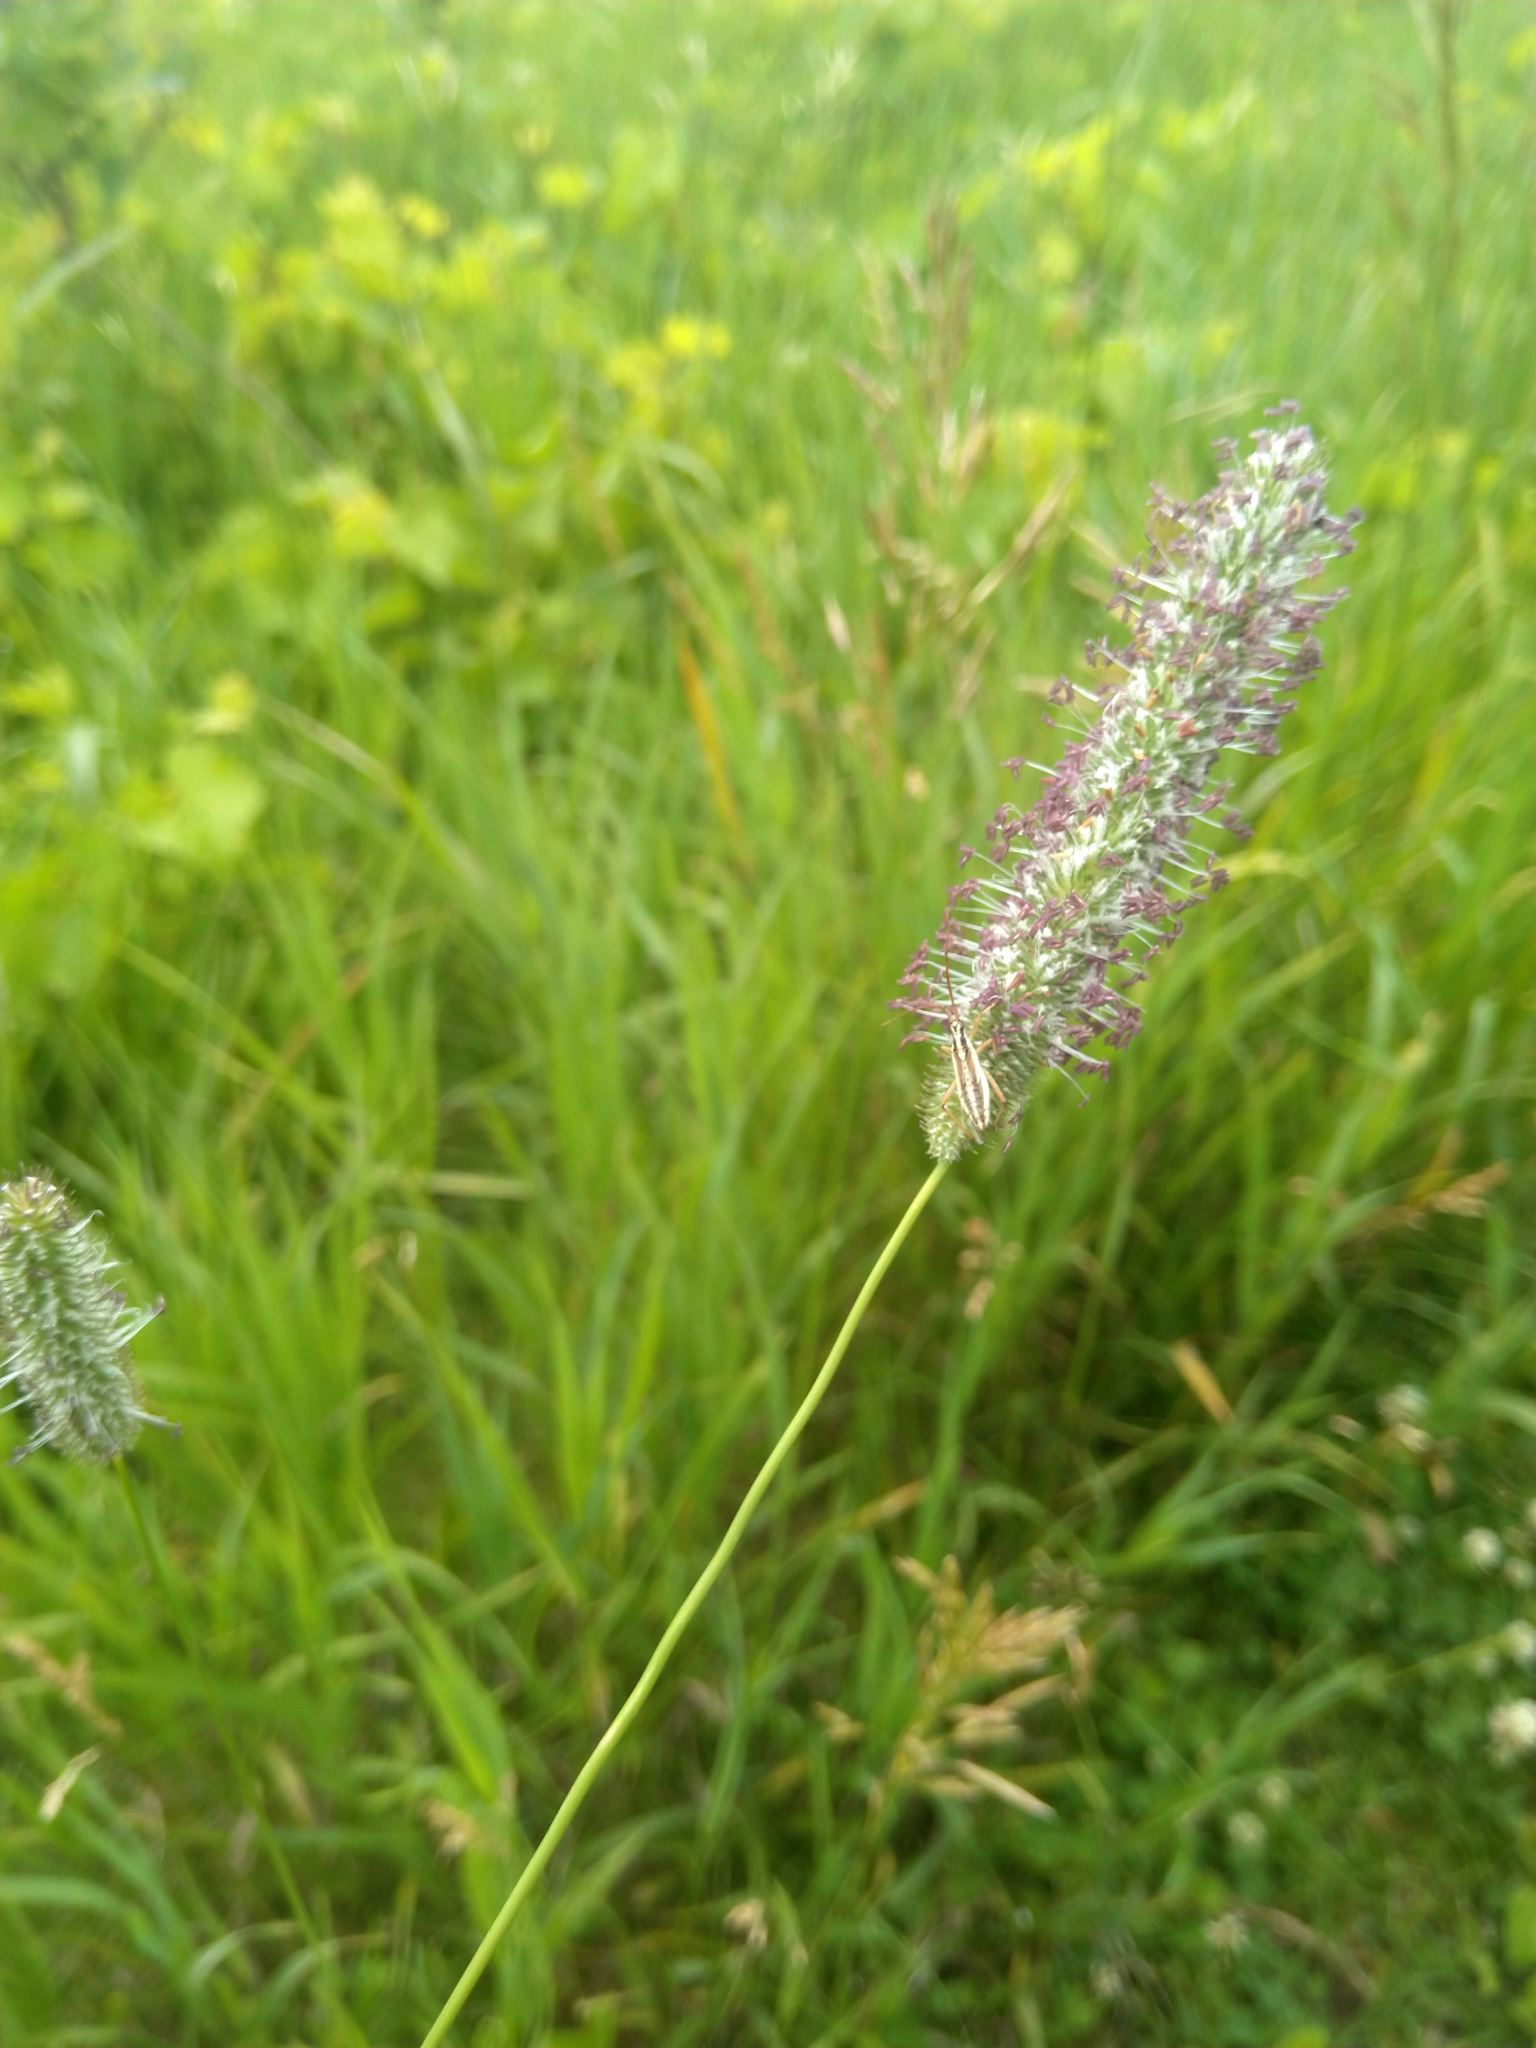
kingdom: Plantae
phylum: Tracheophyta
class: Liliopsida
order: Poales
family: Poaceae
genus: Phleum
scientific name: Phleum pratense
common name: Timothy grass
